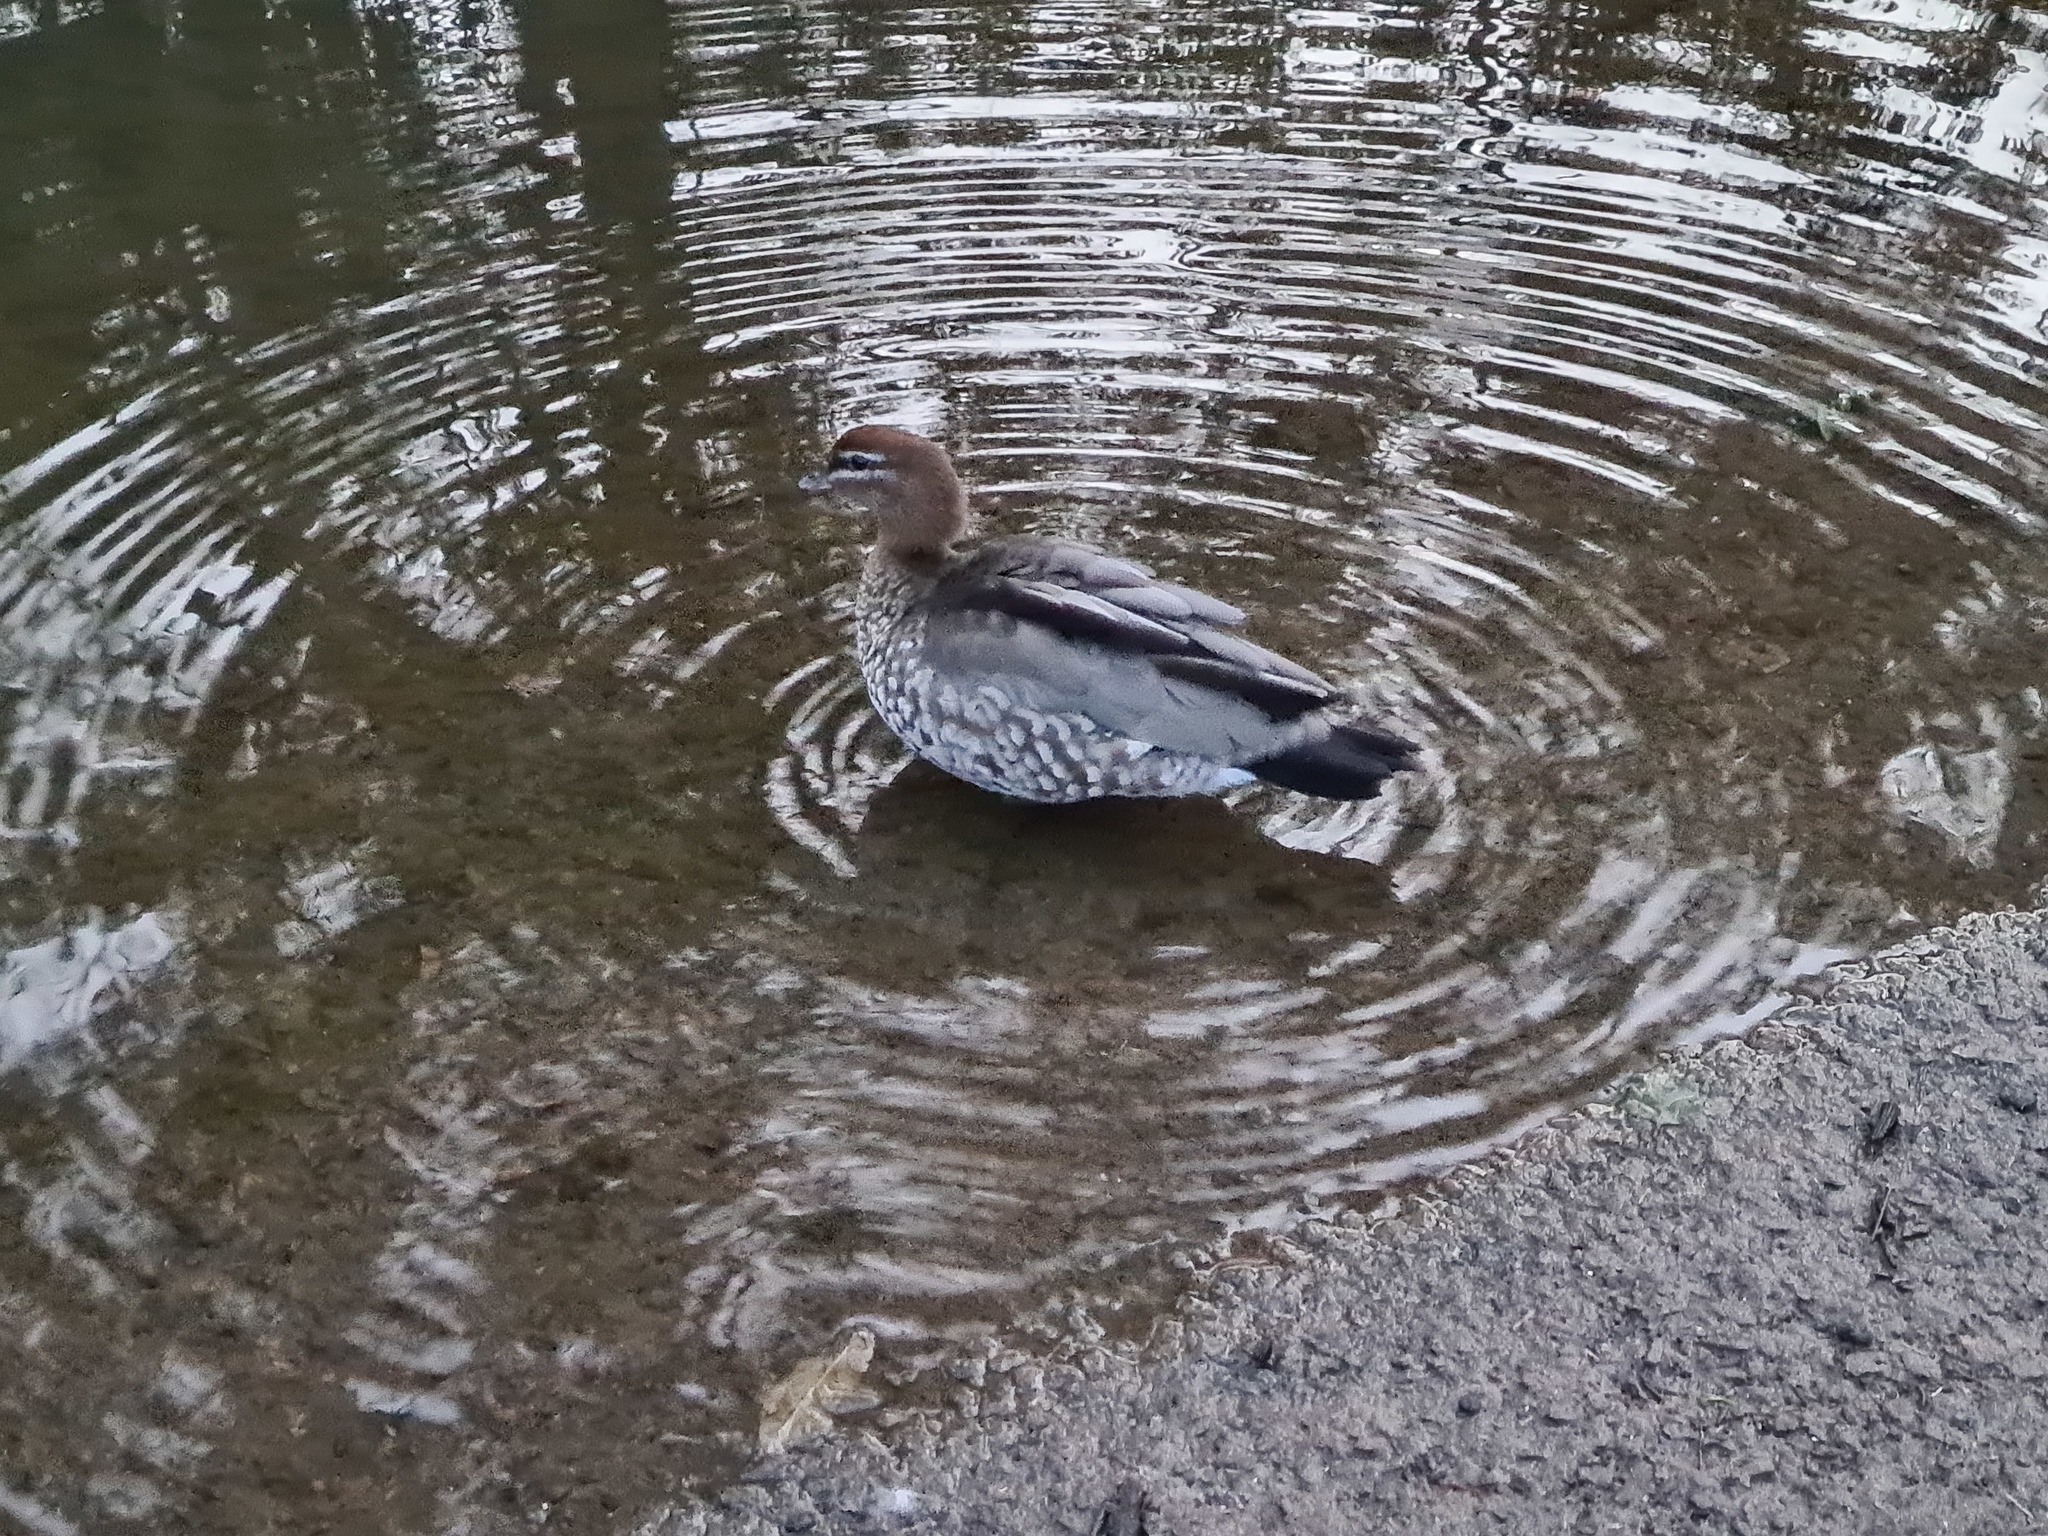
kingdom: Animalia
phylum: Chordata
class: Aves
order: Anseriformes
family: Anatidae
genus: Chenonetta
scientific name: Chenonetta jubata
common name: Maned duck
